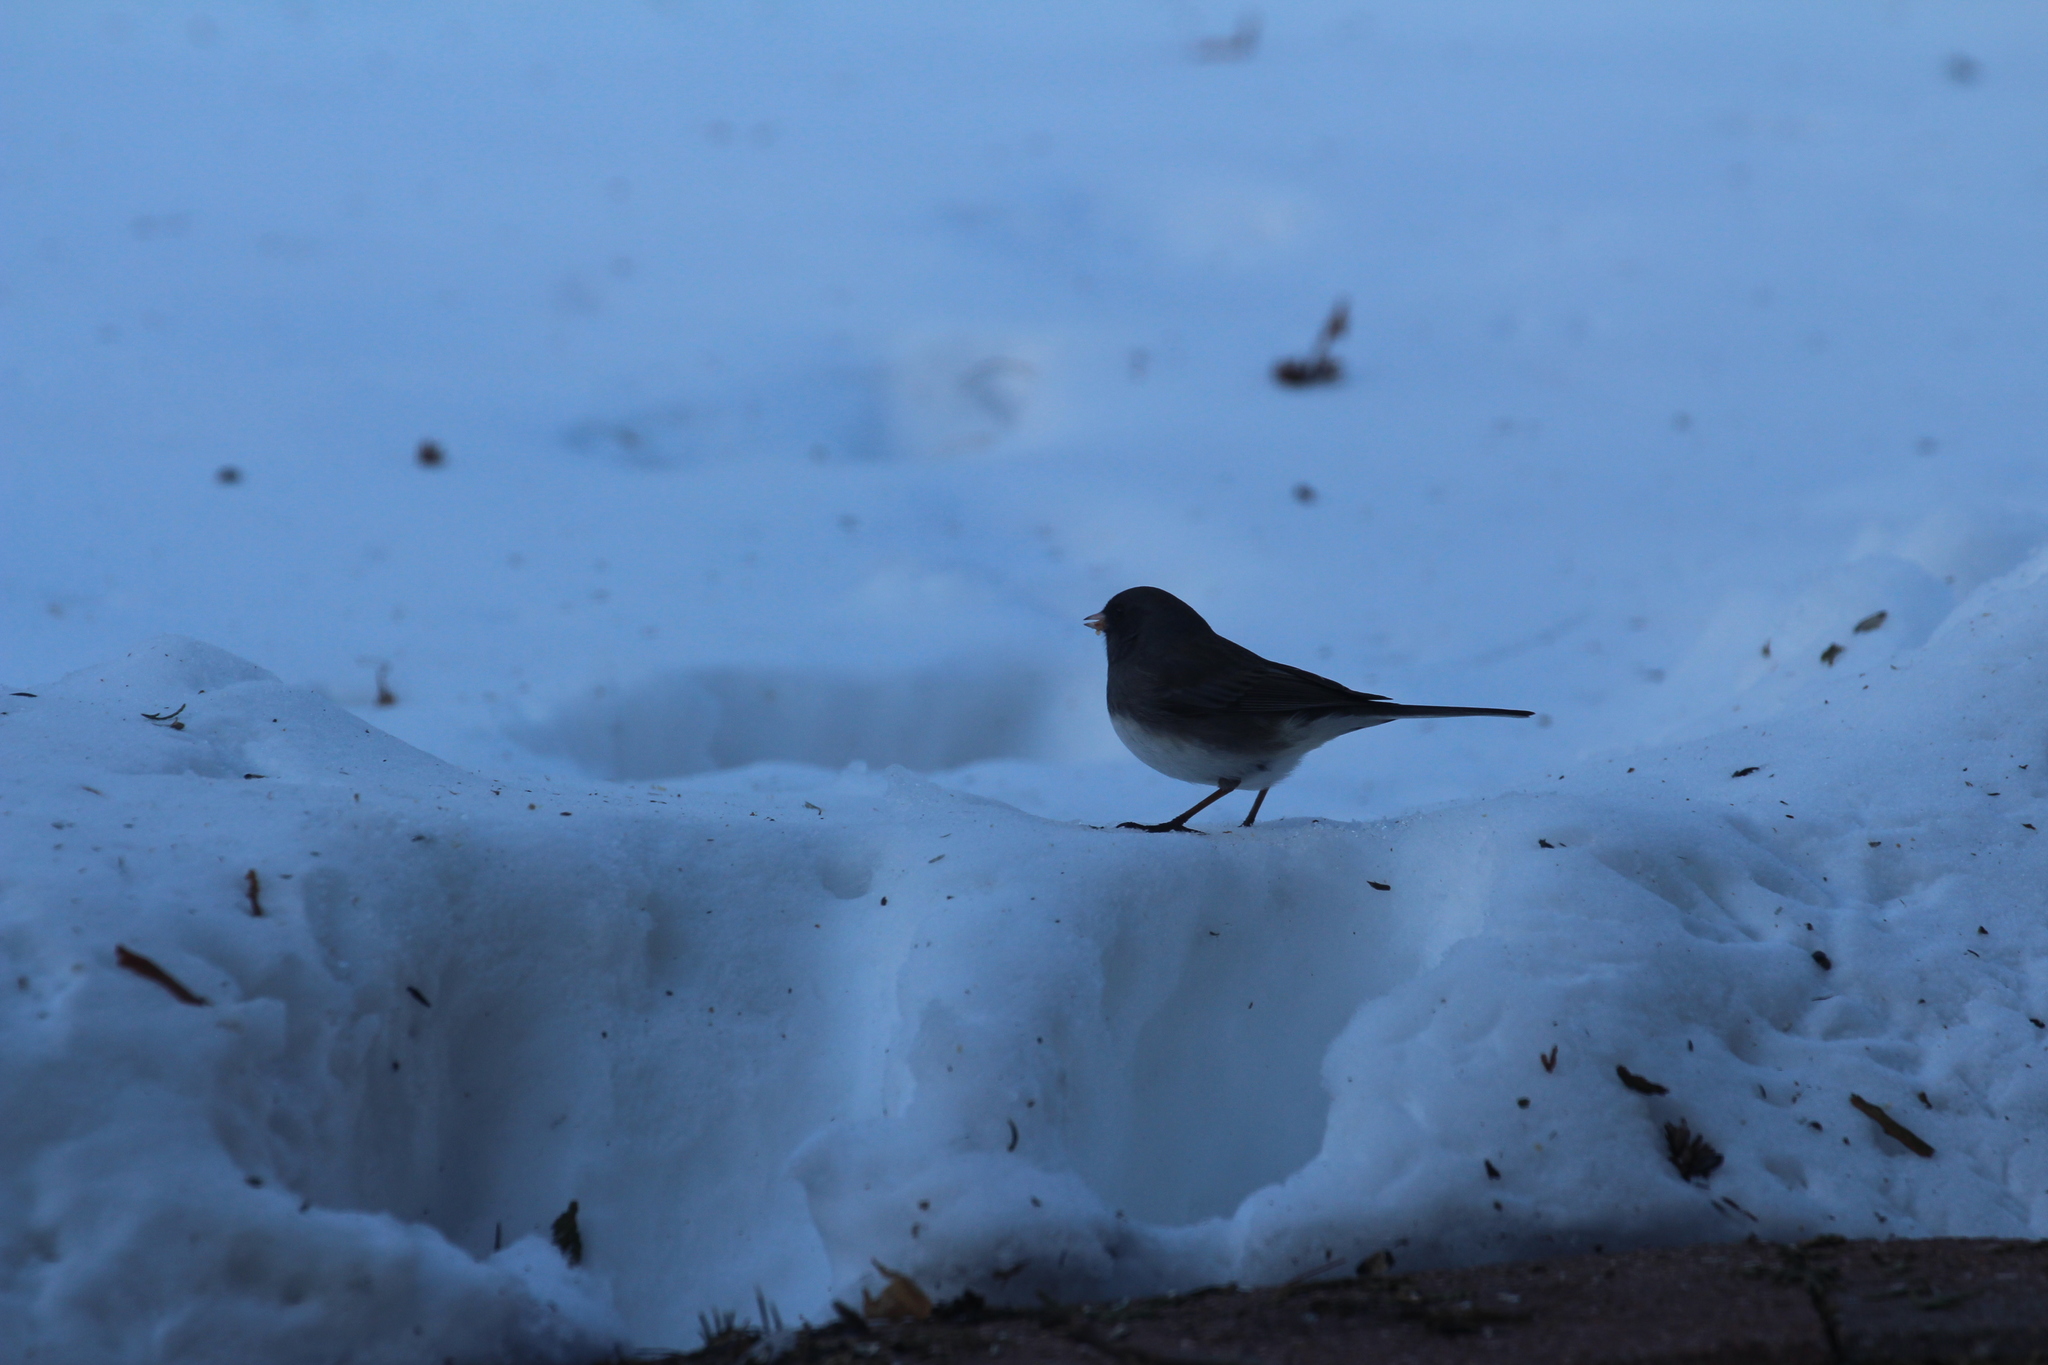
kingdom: Animalia
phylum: Chordata
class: Aves
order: Passeriformes
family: Passerellidae
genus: Junco
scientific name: Junco hyemalis
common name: Dark-eyed junco
